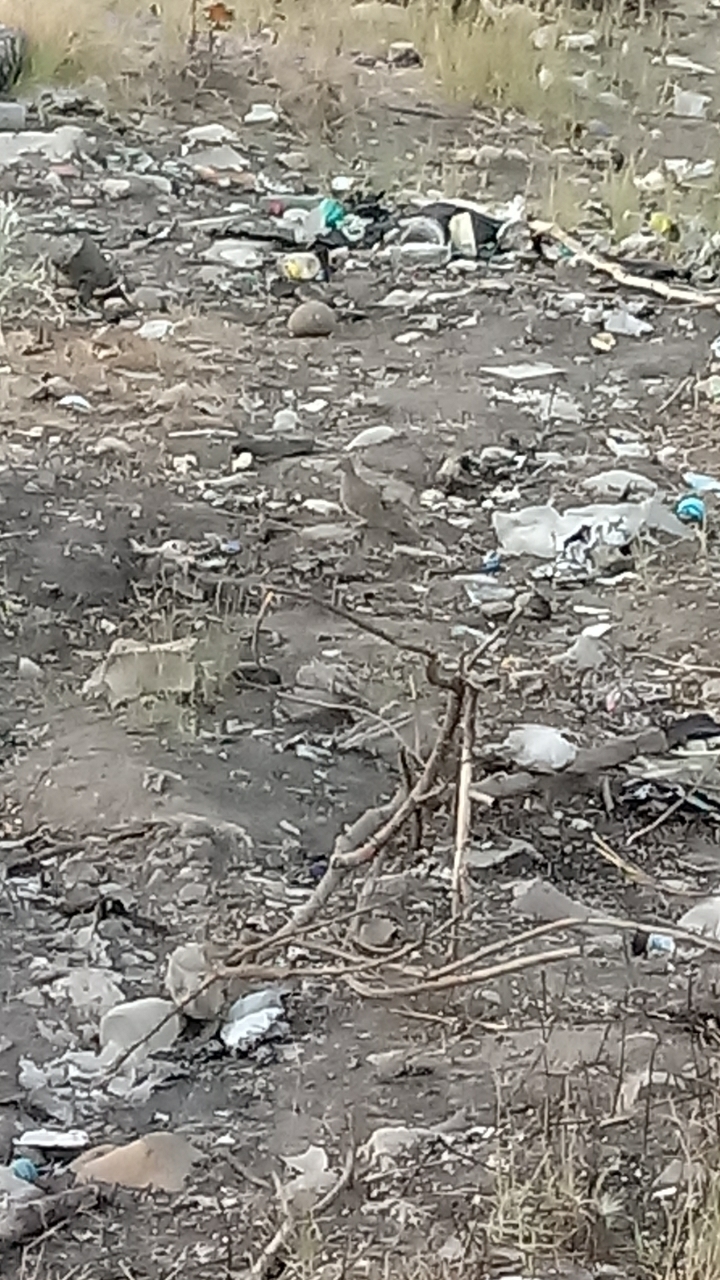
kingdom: Animalia
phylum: Chordata
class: Aves
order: Columbiformes
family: Columbidae
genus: Zenaida
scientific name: Zenaida asiatica
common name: White-winged dove
